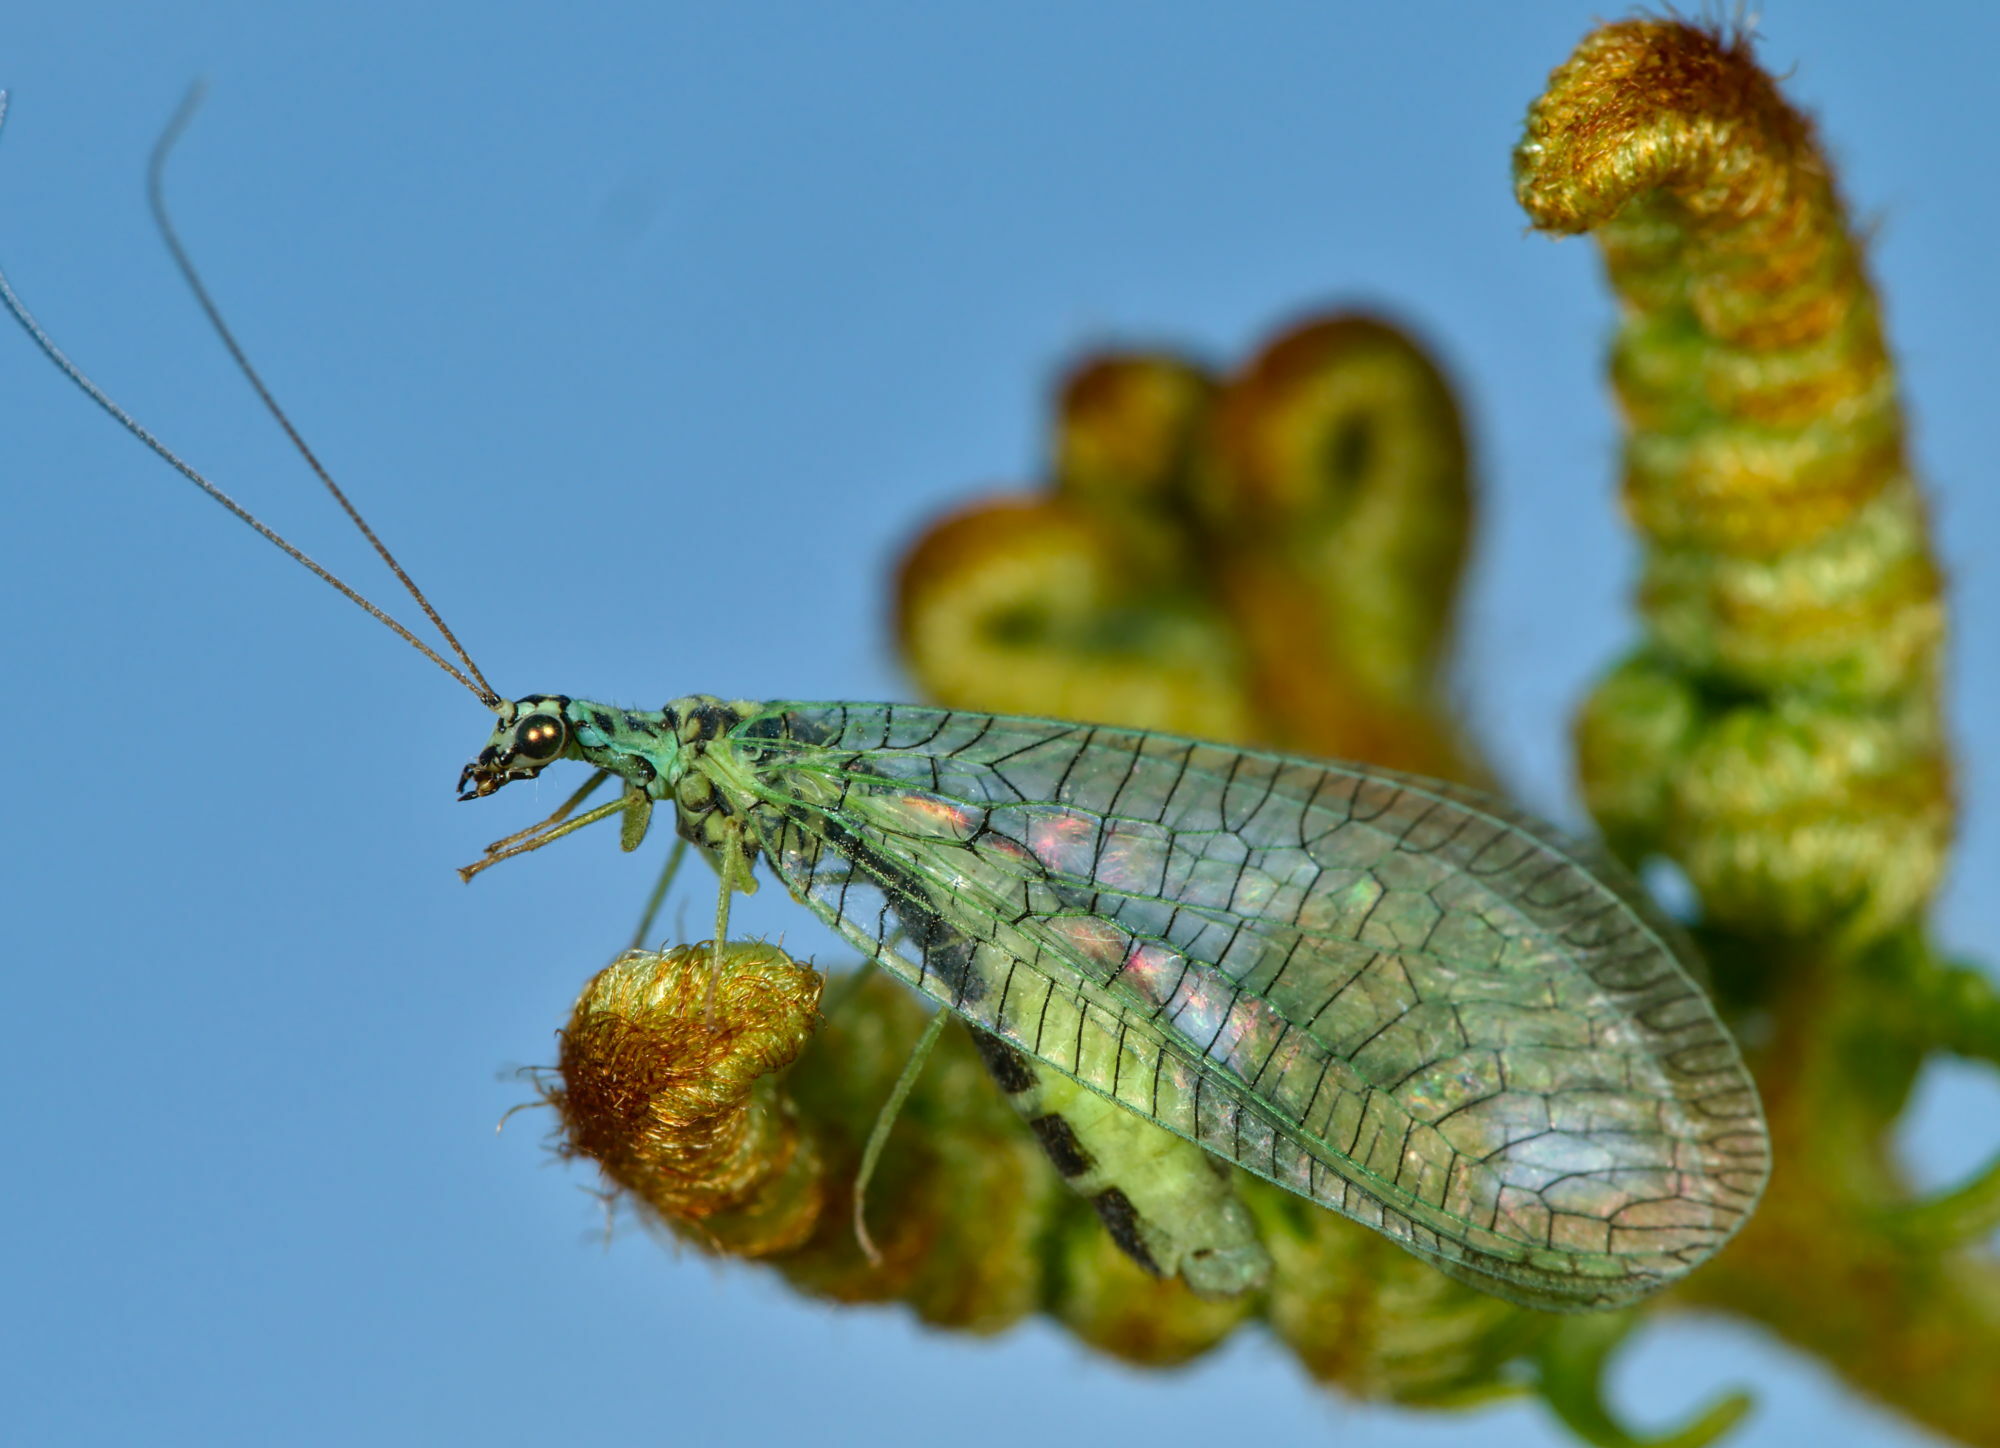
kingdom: Animalia
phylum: Arthropoda
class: Insecta
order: Neuroptera
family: Chrysopidae
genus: Chrysopa
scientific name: Chrysopa perla
